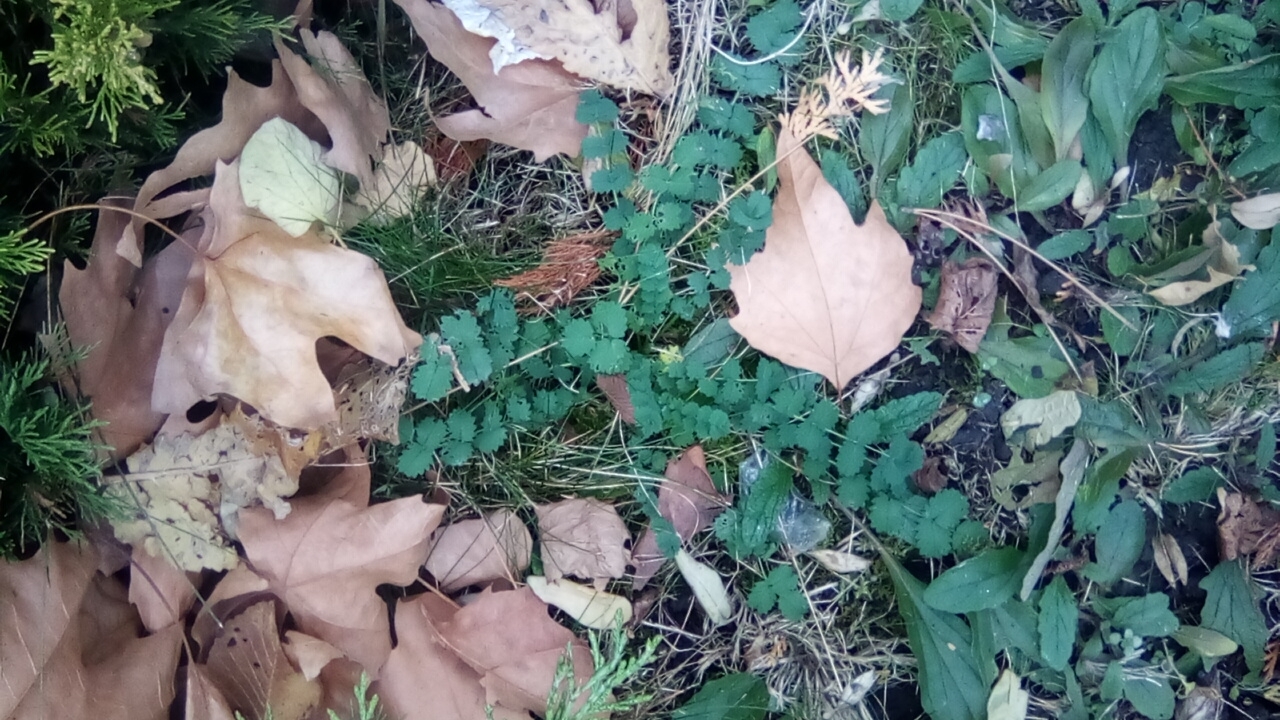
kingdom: Plantae
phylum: Tracheophyta
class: Magnoliopsida
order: Rosales
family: Rosaceae
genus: Poterium
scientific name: Poterium sanguisorba
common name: Salad burnet
